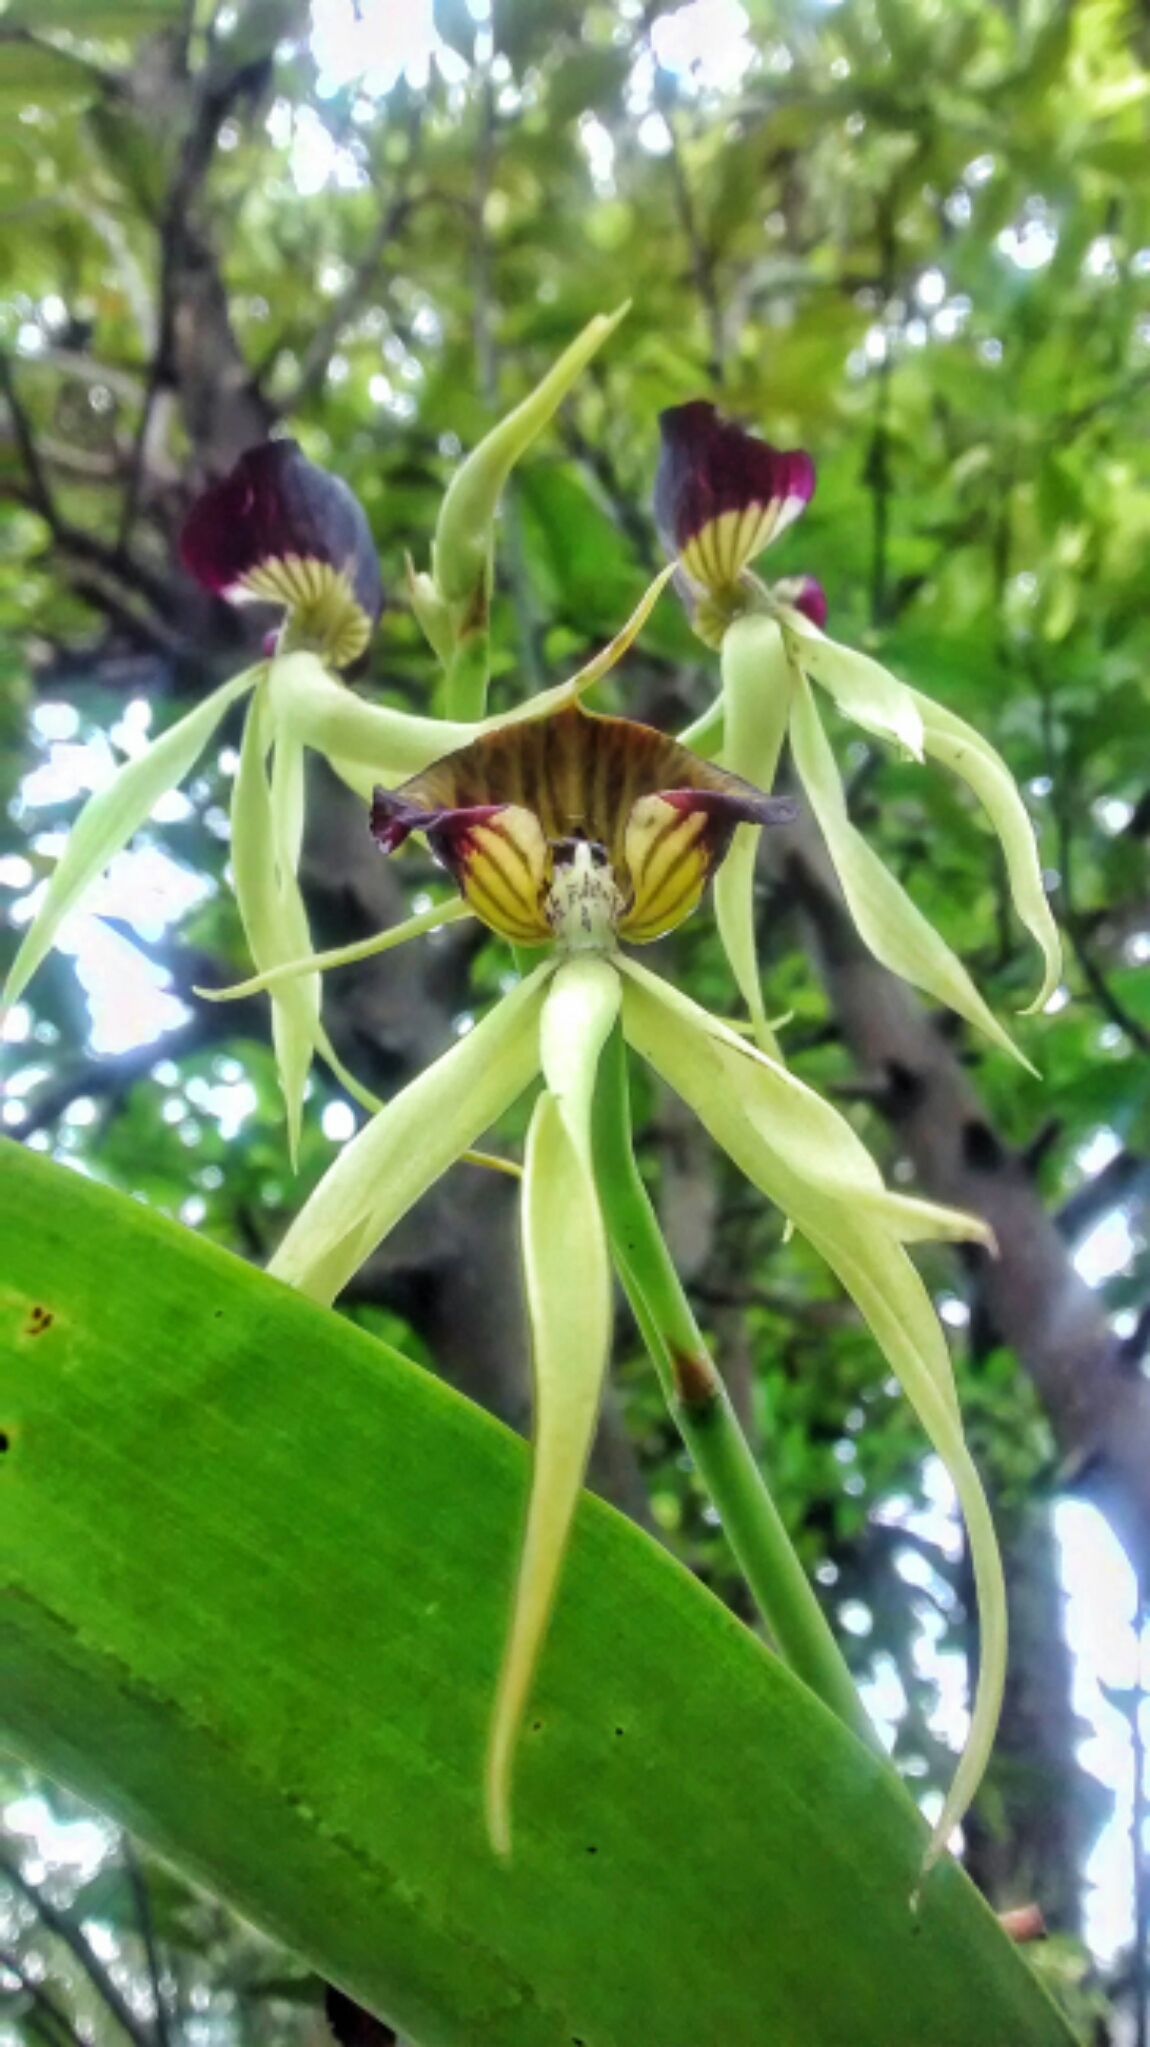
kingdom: Plantae
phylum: Tracheophyta
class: Liliopsida
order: Asparagales
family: Orchidaceae
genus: Prosthechea
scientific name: Prosthechea cochleata
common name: Clamshell orchid
